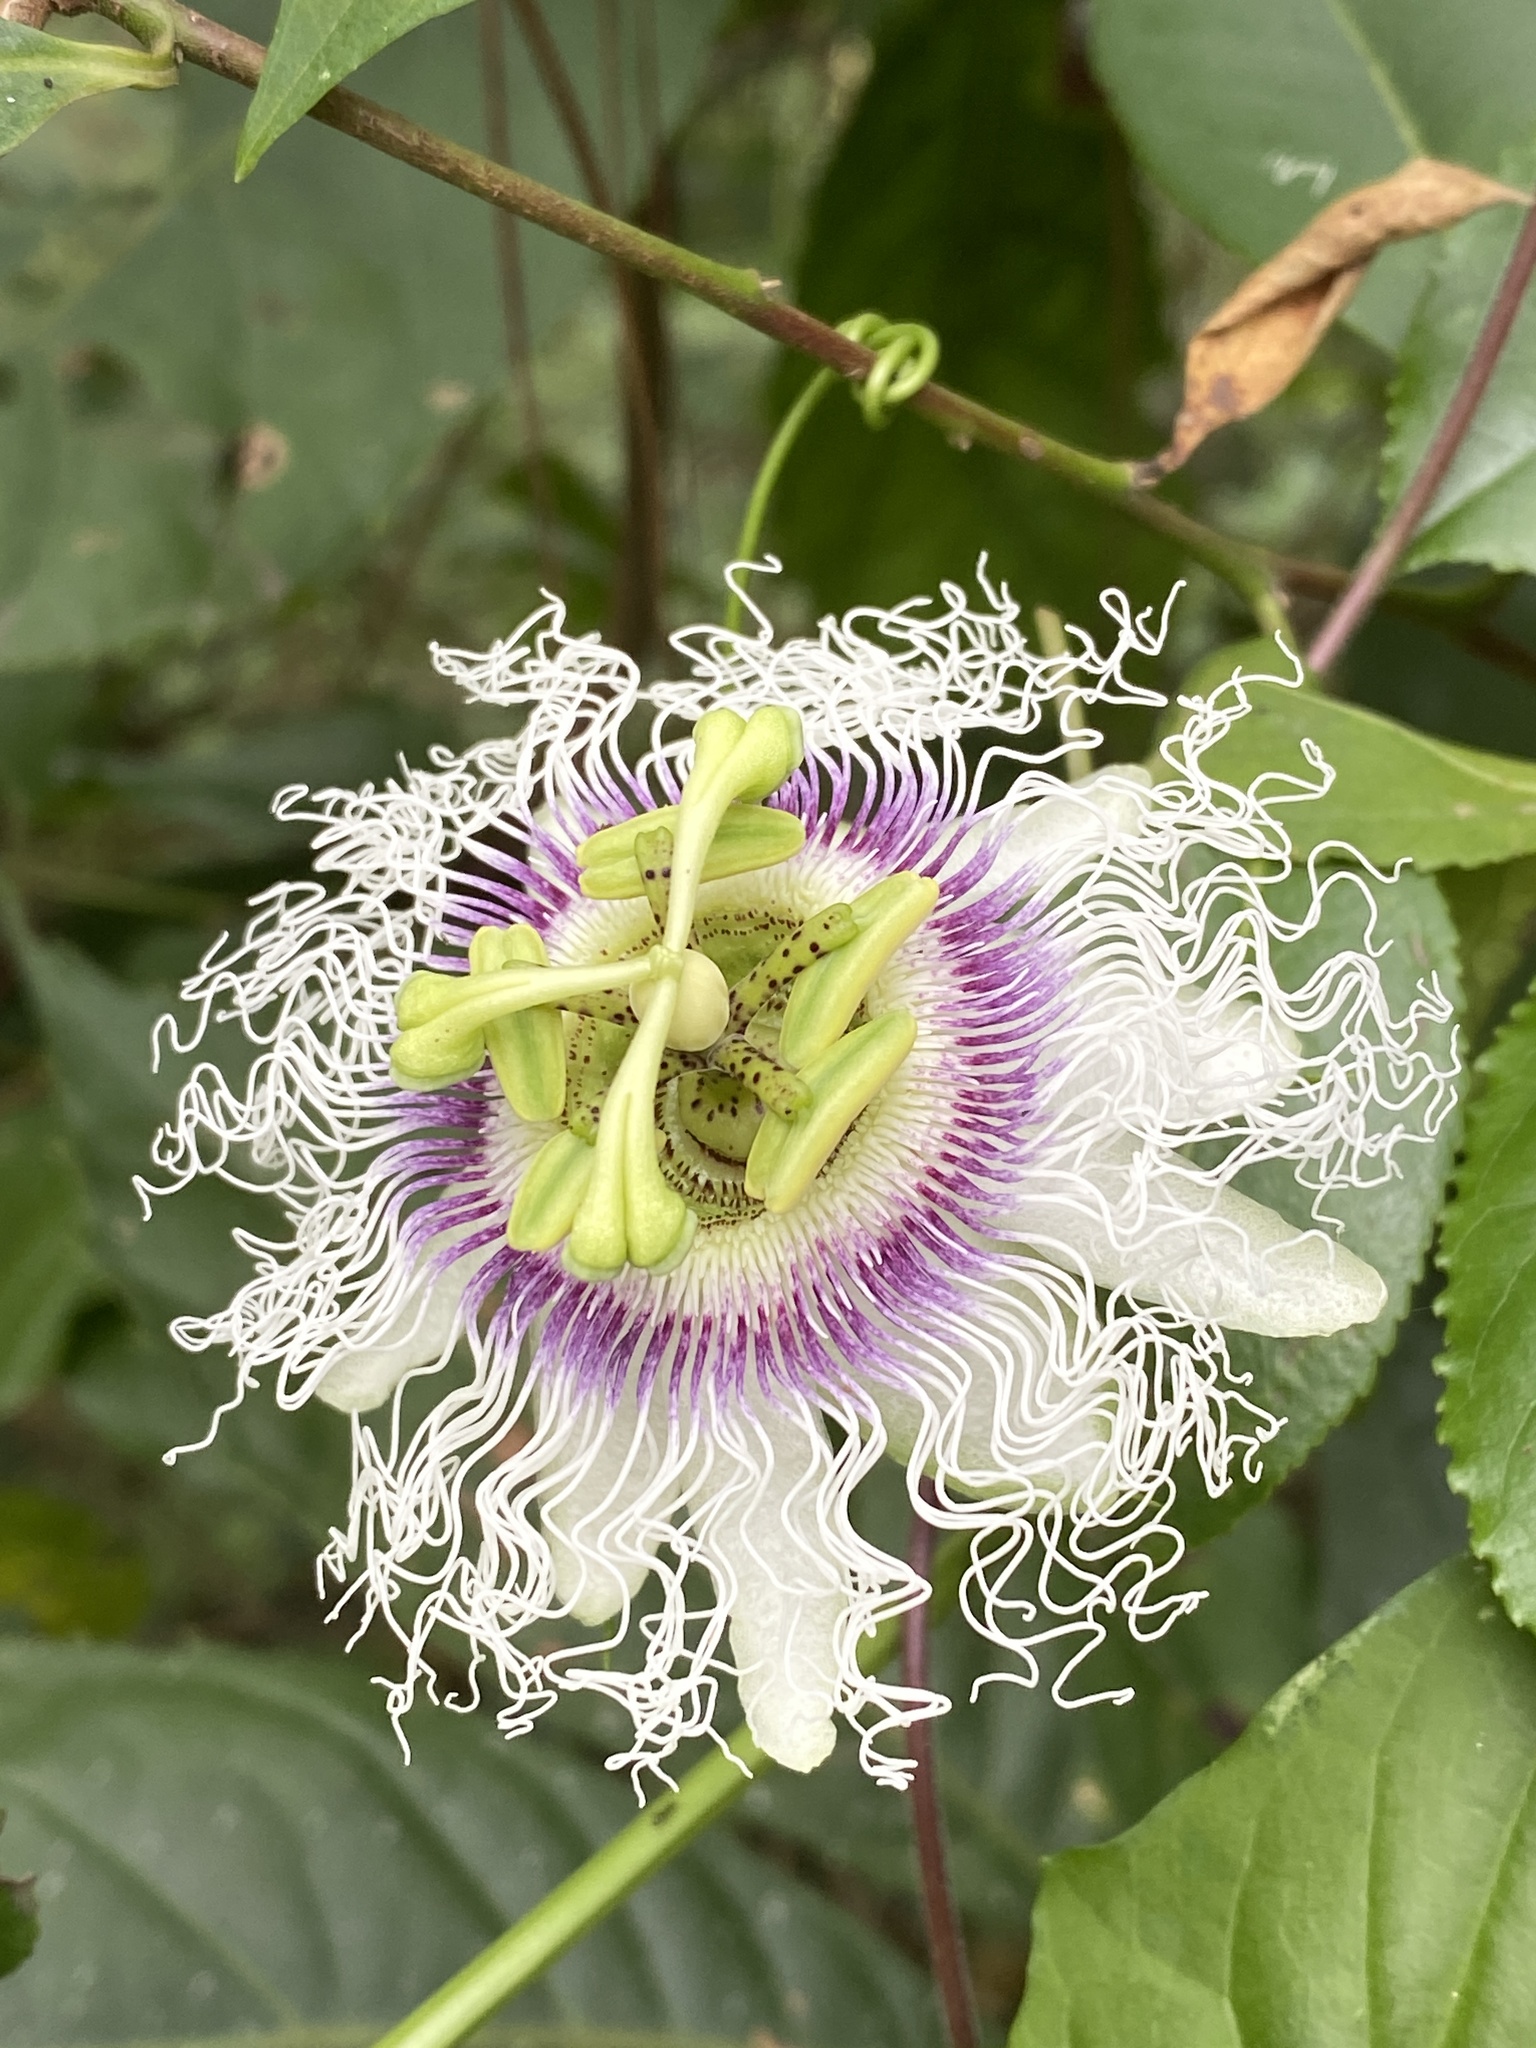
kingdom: Plantae
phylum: Tracheophyta
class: Magnoliopsida
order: Malpighiales
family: Passifloraceae
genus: Passiflora
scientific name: Passiflora edulis
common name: Purple granadilla
